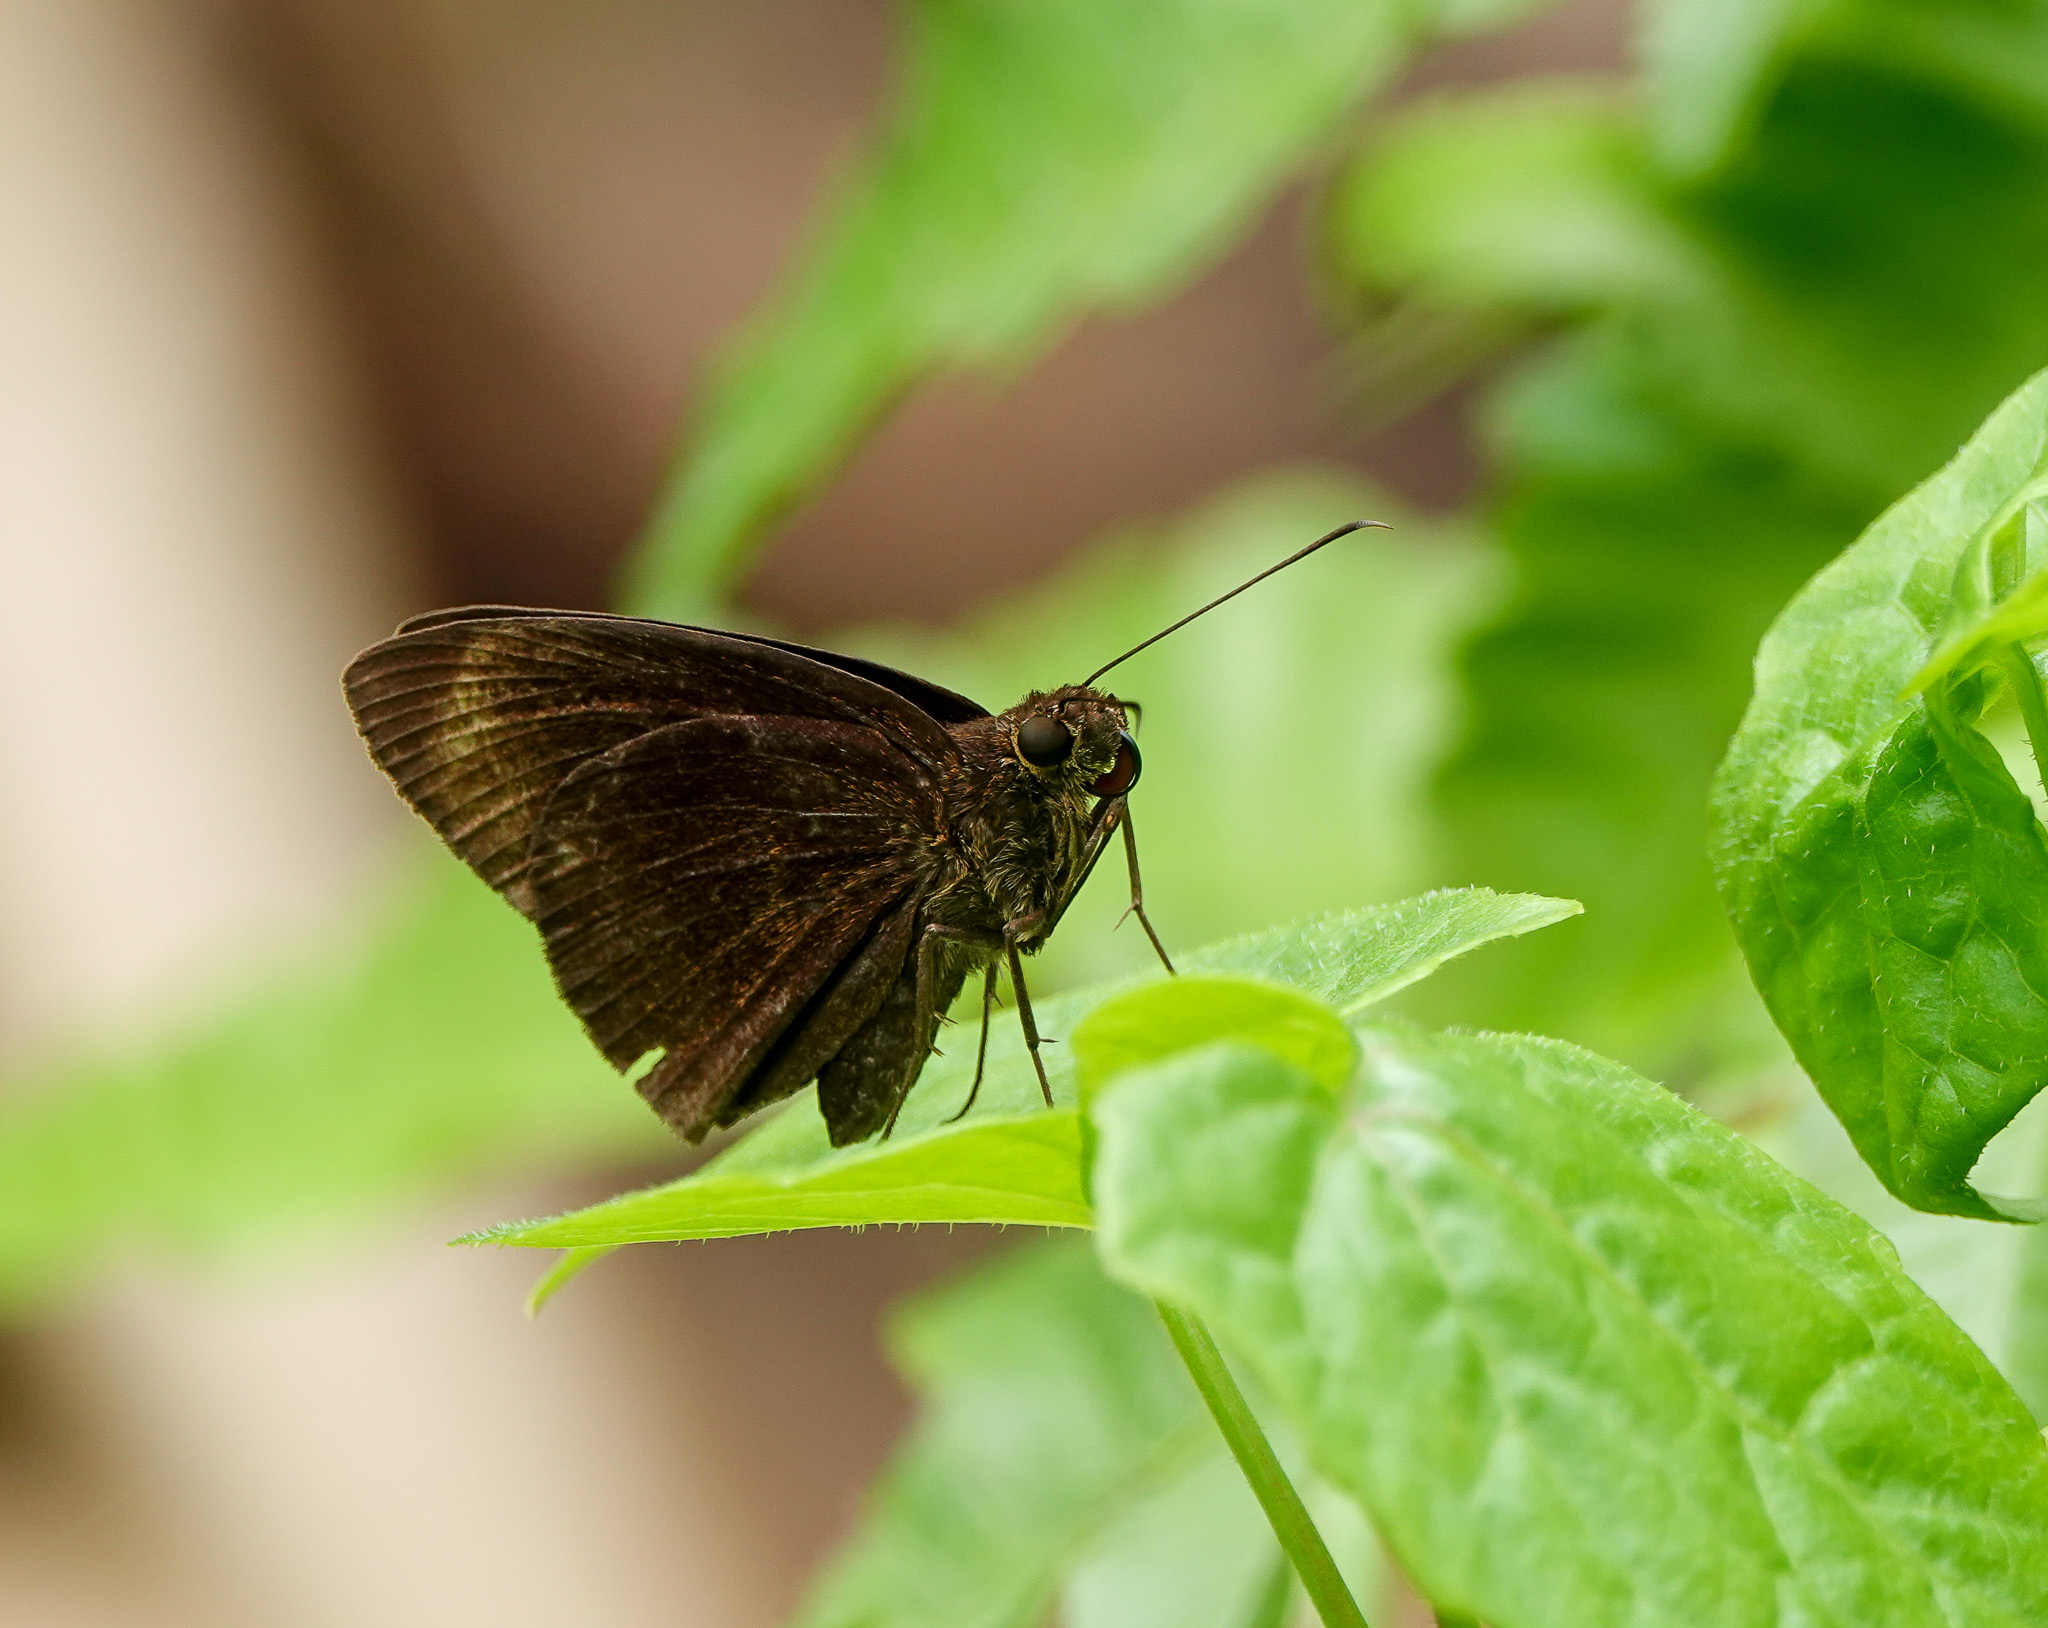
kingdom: Animalia
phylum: Arthropoda
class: Insecta
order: Lepidoptera
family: Hesperiidae
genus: Ancistroides
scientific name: Ancistroides nigrita
